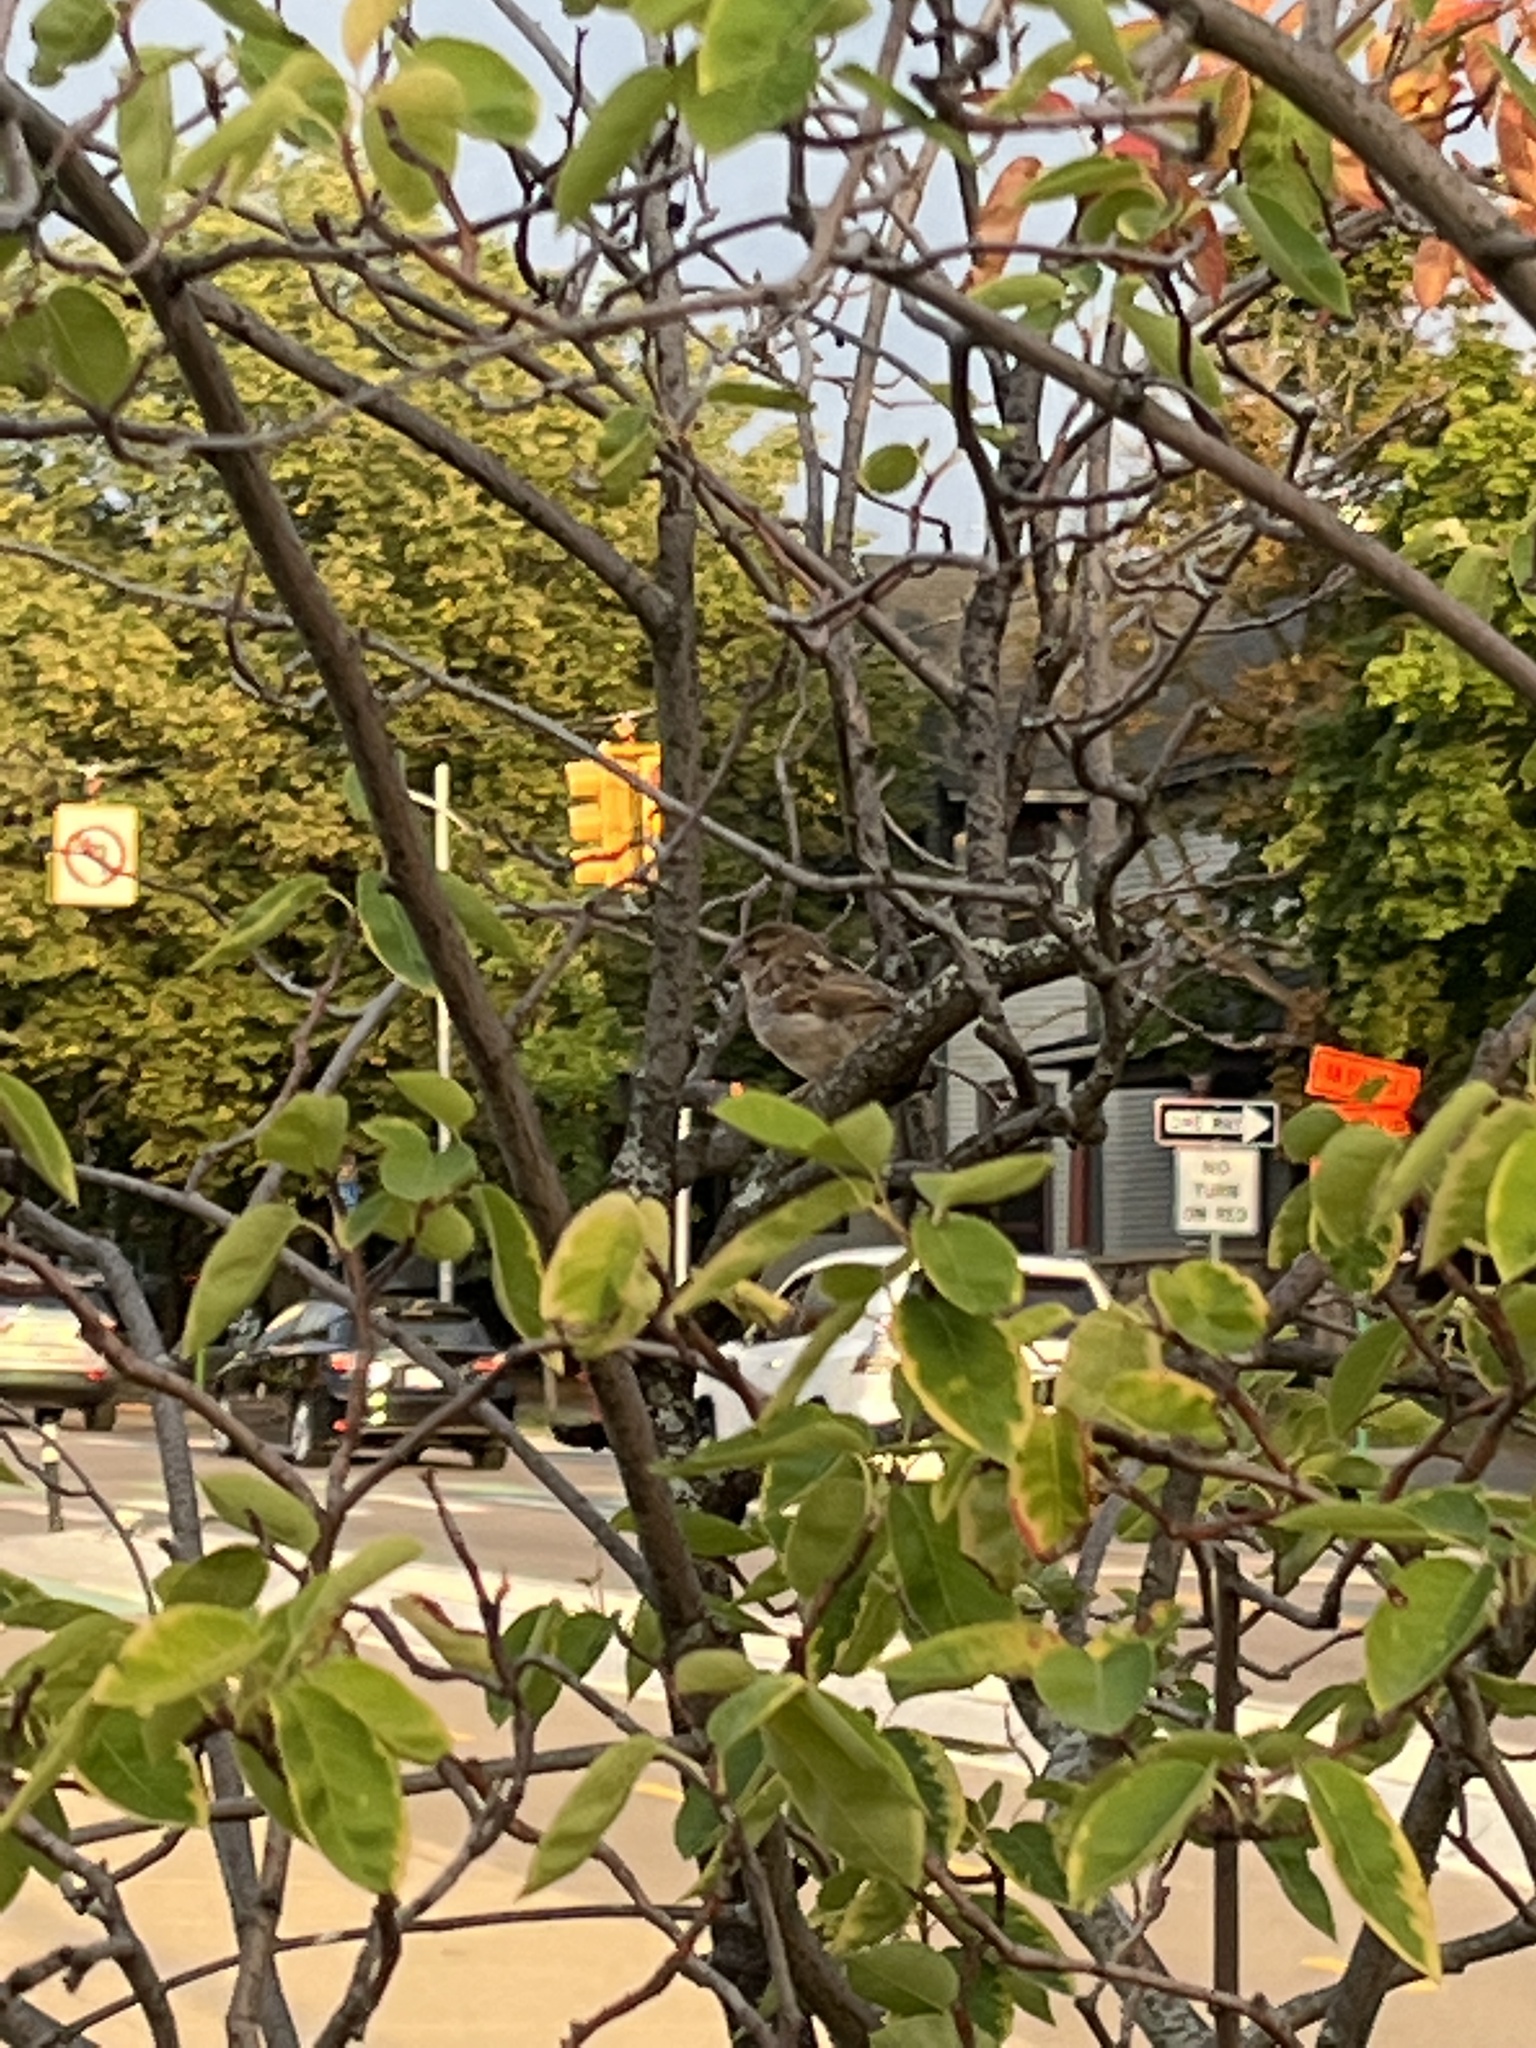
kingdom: Animalia
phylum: Chordata
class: Aves
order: Passeriformes
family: Passeridae
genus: Passer
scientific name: Passer domesticus
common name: House sparrow
